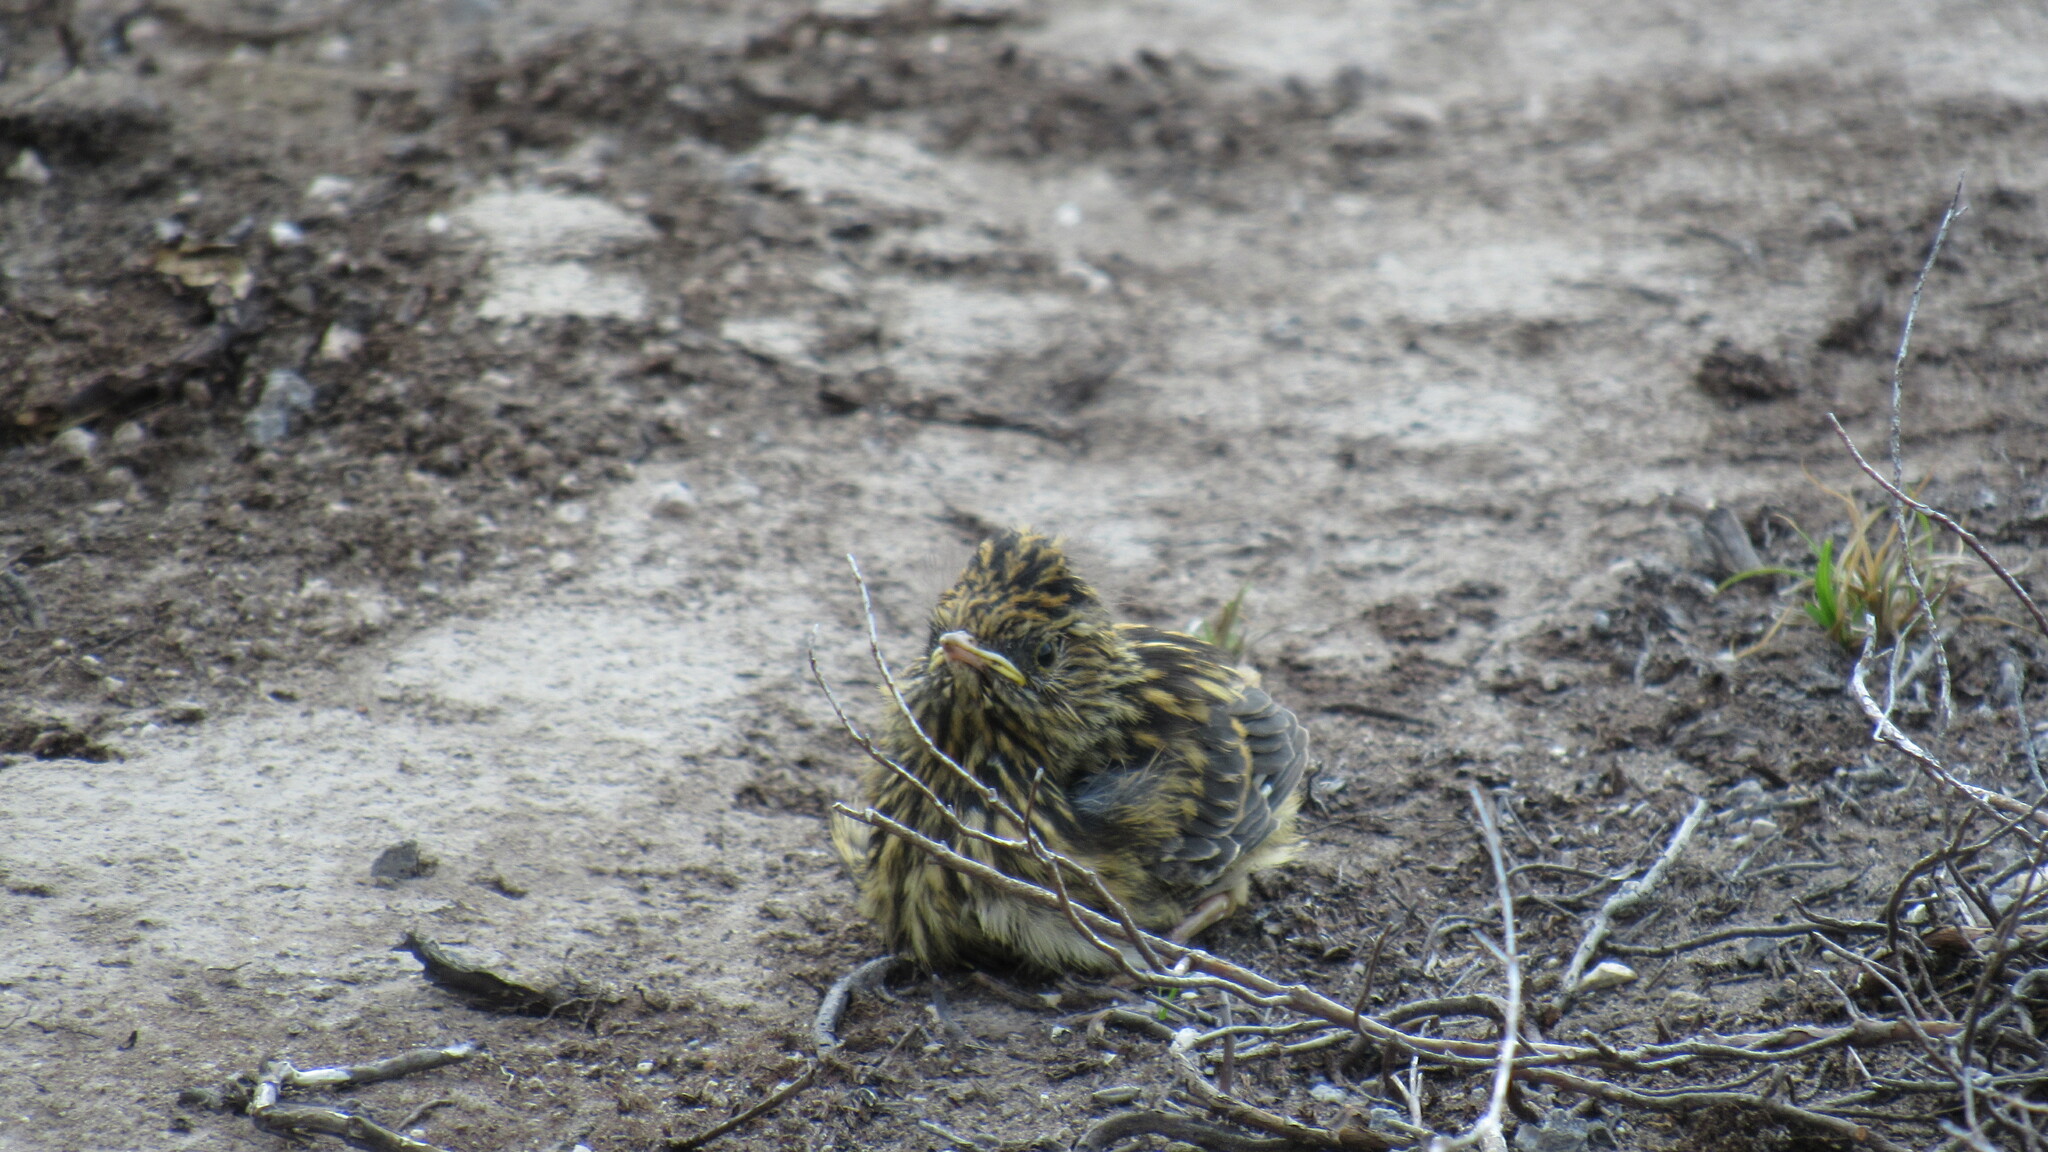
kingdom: Animalia
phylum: Chordata
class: Aves
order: Passeriformes
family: Emberizidae
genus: Emberiza
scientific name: Emberiza aureola
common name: Yellow-breasted bunting
